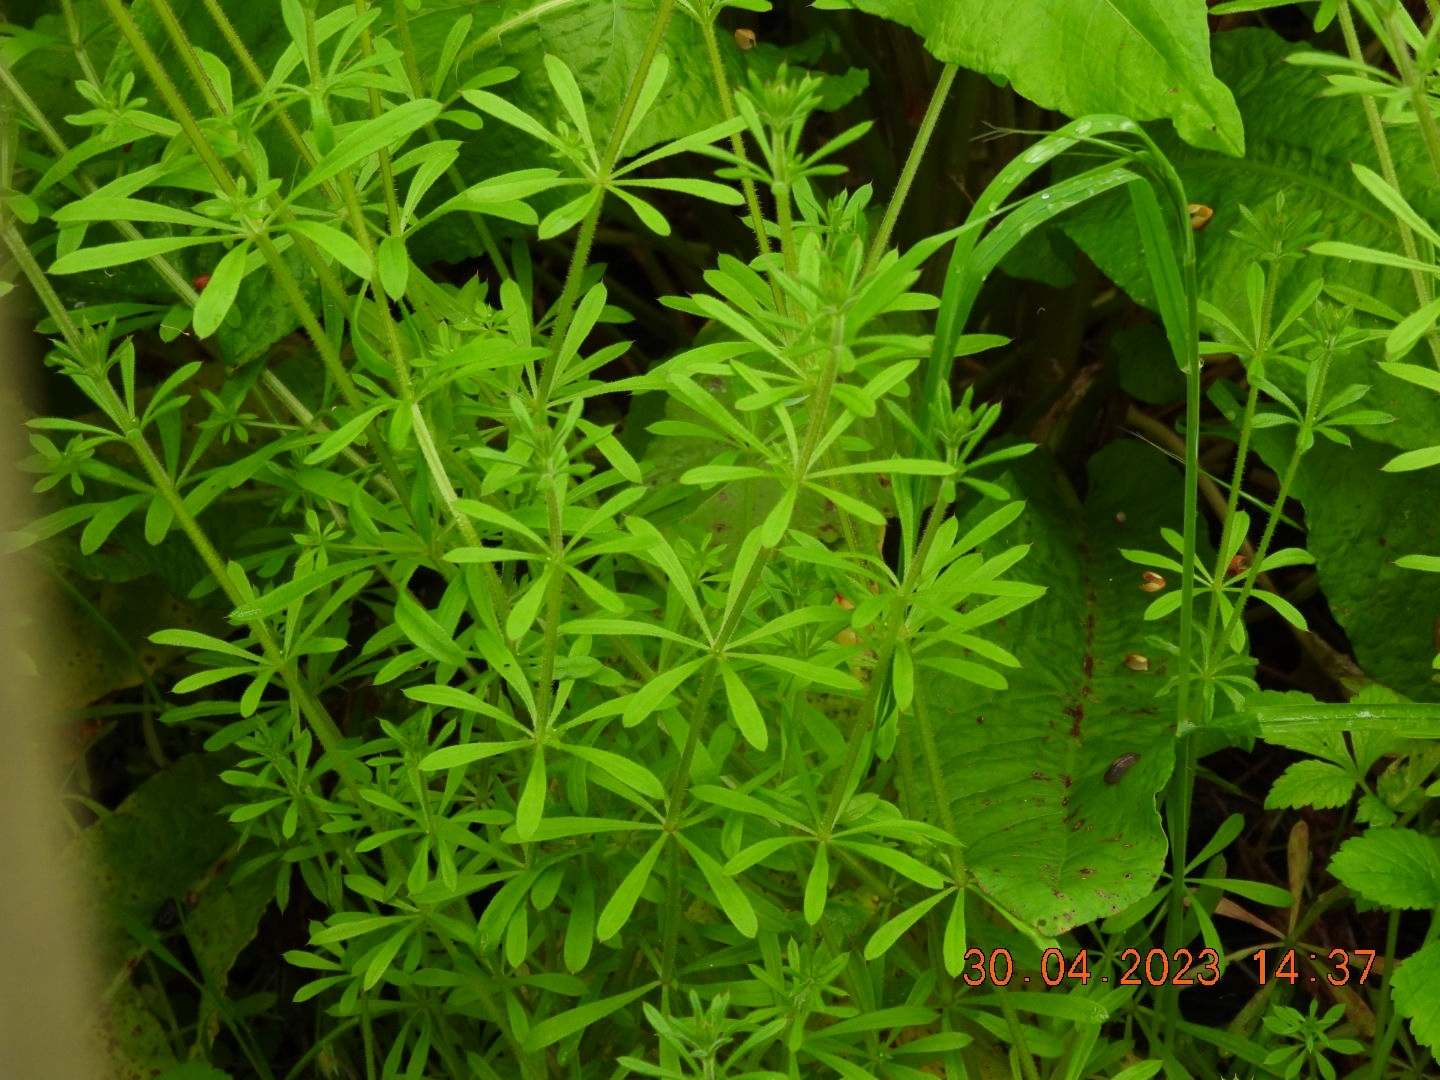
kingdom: Plantae
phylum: Tracheophyta
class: Magnoliopsida
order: Gentianales
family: Rubiaceae
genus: Galium
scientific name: Galium aparine
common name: Cleavers
